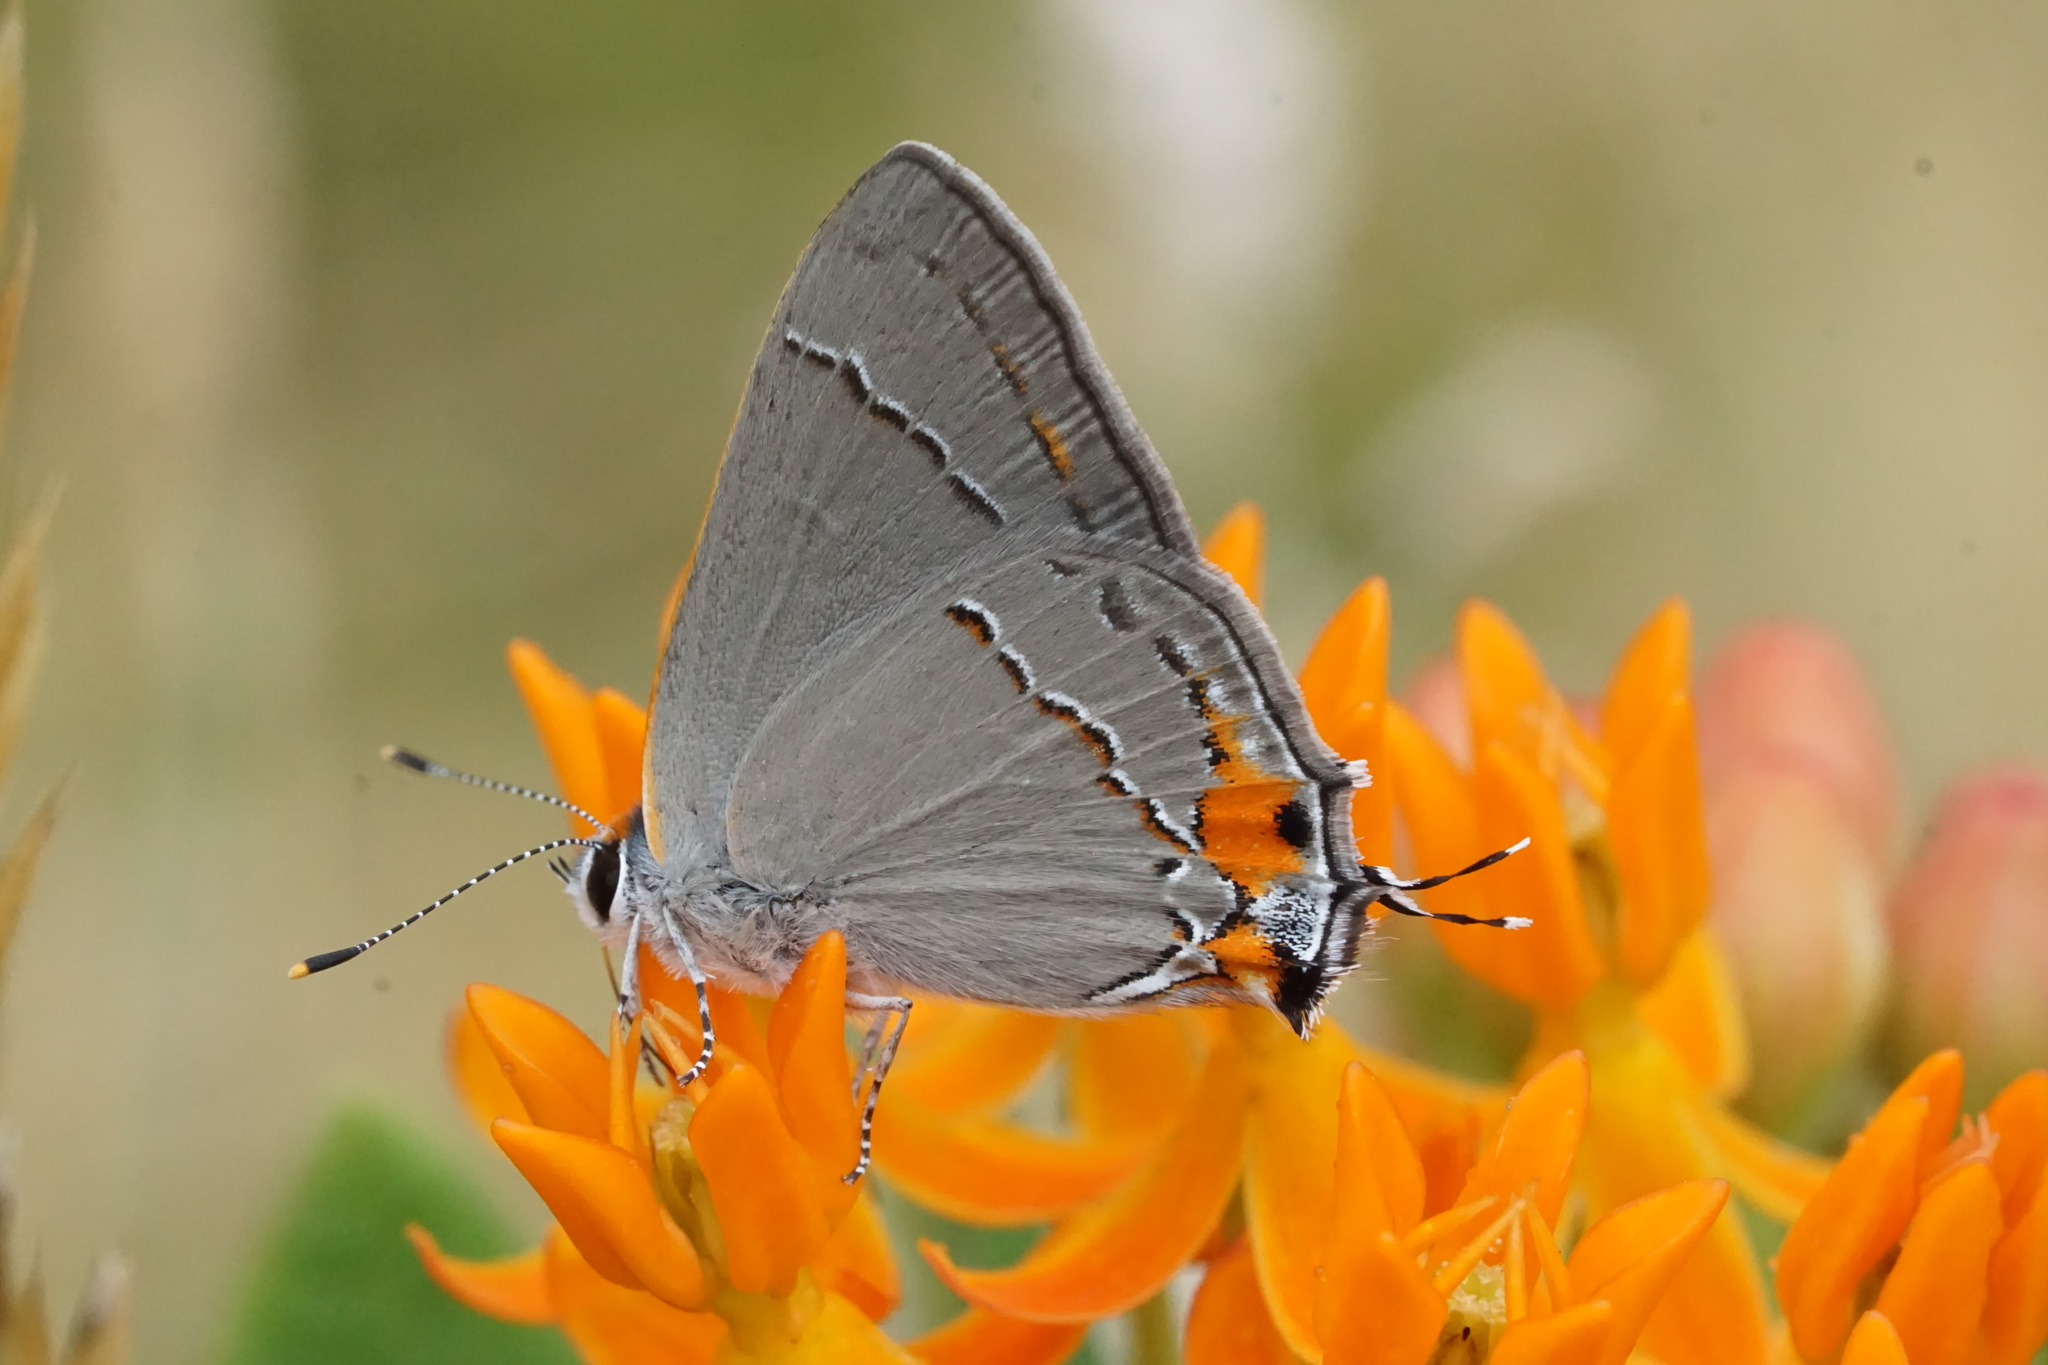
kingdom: Animalia
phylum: Arthropoda
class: Insecta
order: Lepidoptera
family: Lycaenidae
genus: Strymon
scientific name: Strymon melinus
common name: Gray hairstreak
